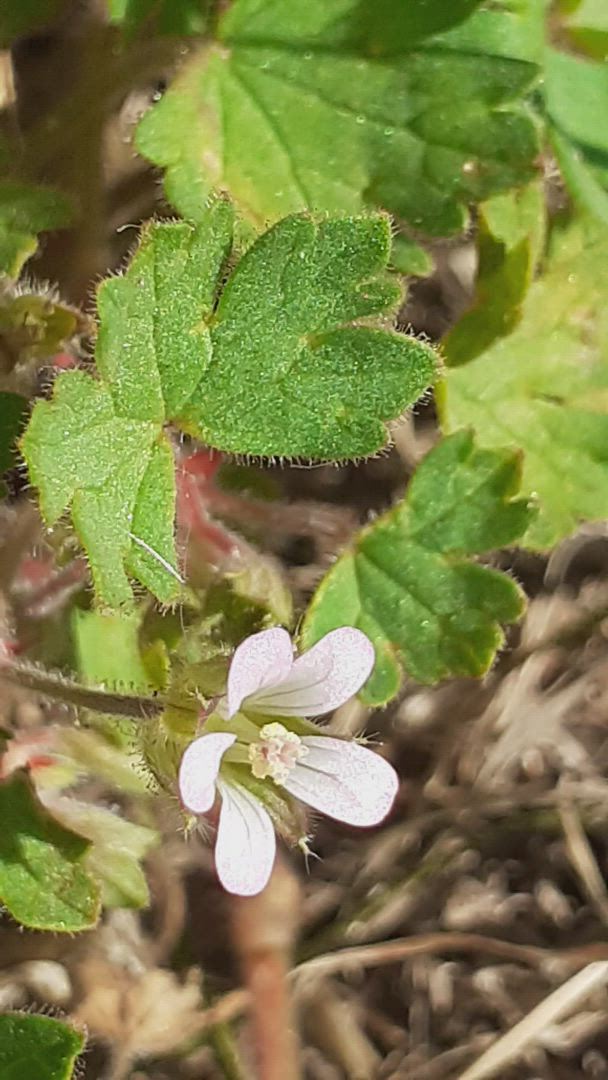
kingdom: Plantae
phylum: Tracheophyta
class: Magnoliopsida
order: Geraniales
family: Geraniaceae
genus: Geranium
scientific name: Geranium rotundifolium
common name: Round-leaved crane's-bill
